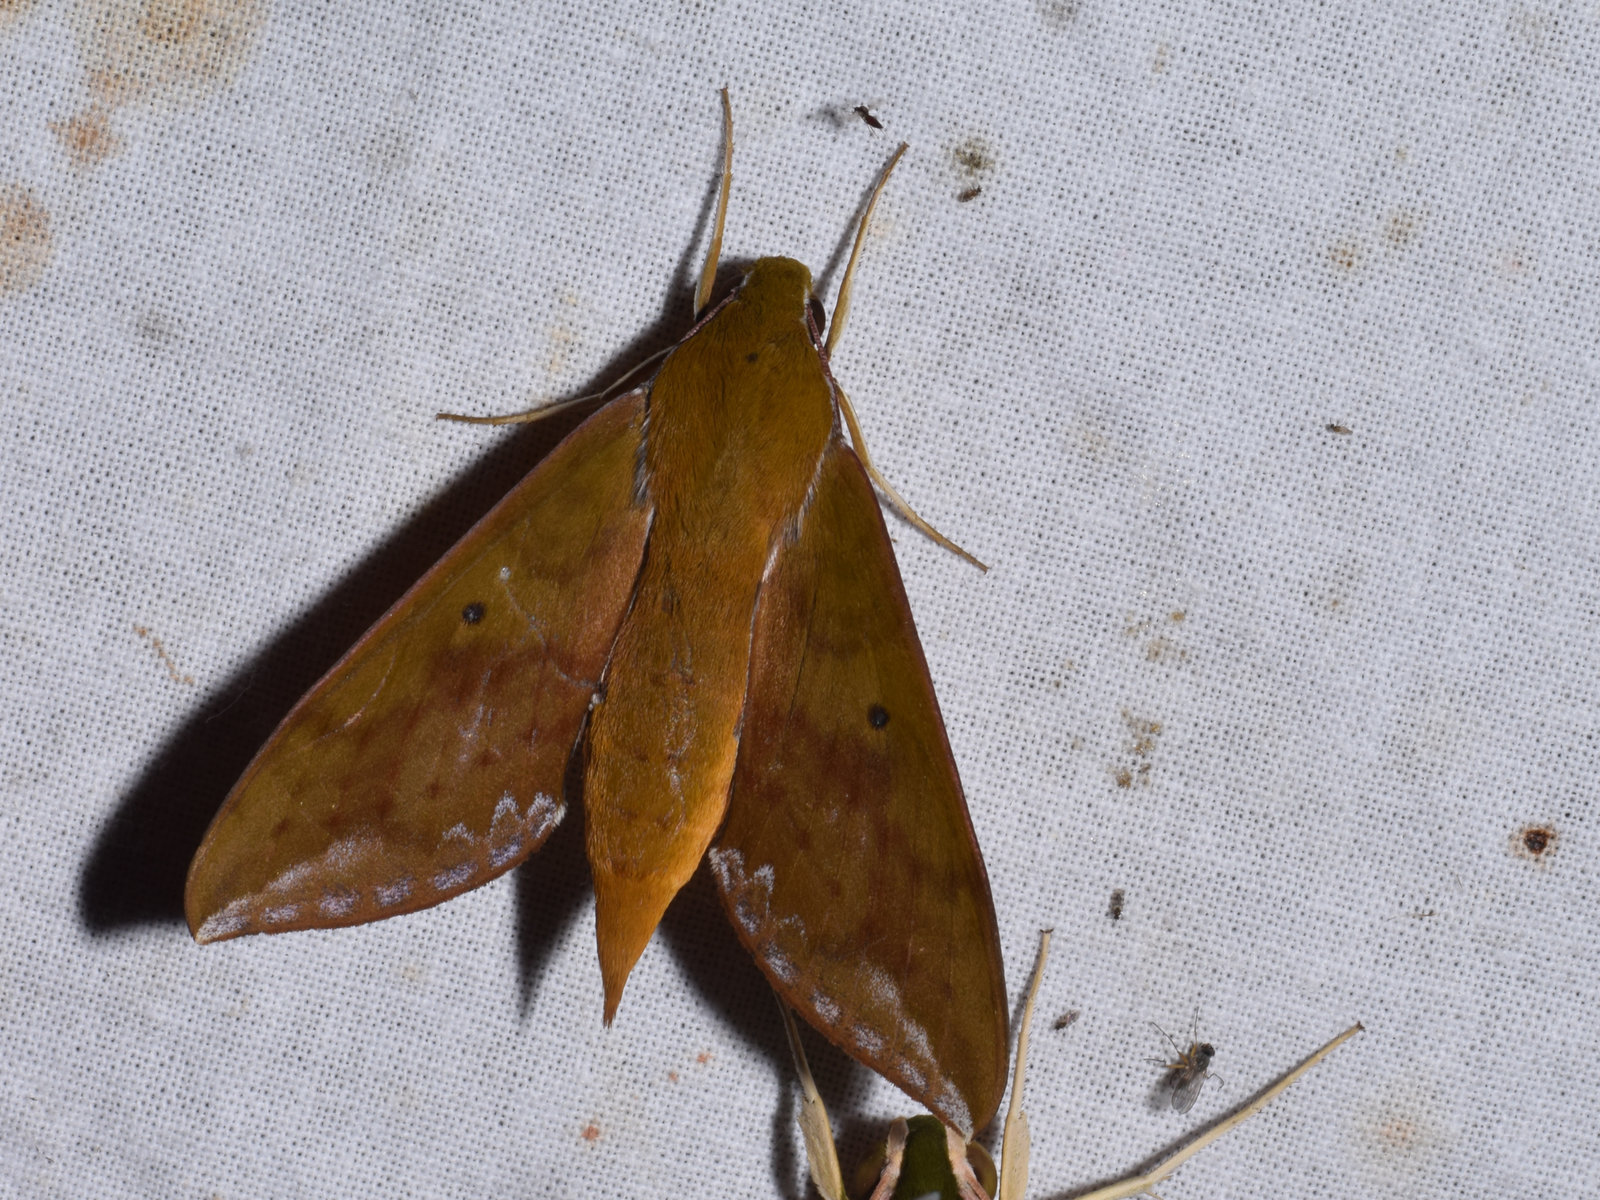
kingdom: Animalia
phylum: Arthropoda
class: Insecta
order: Lepidoptera
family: Sphingidae
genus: Rhagastis
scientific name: Rhagastis olivacea
